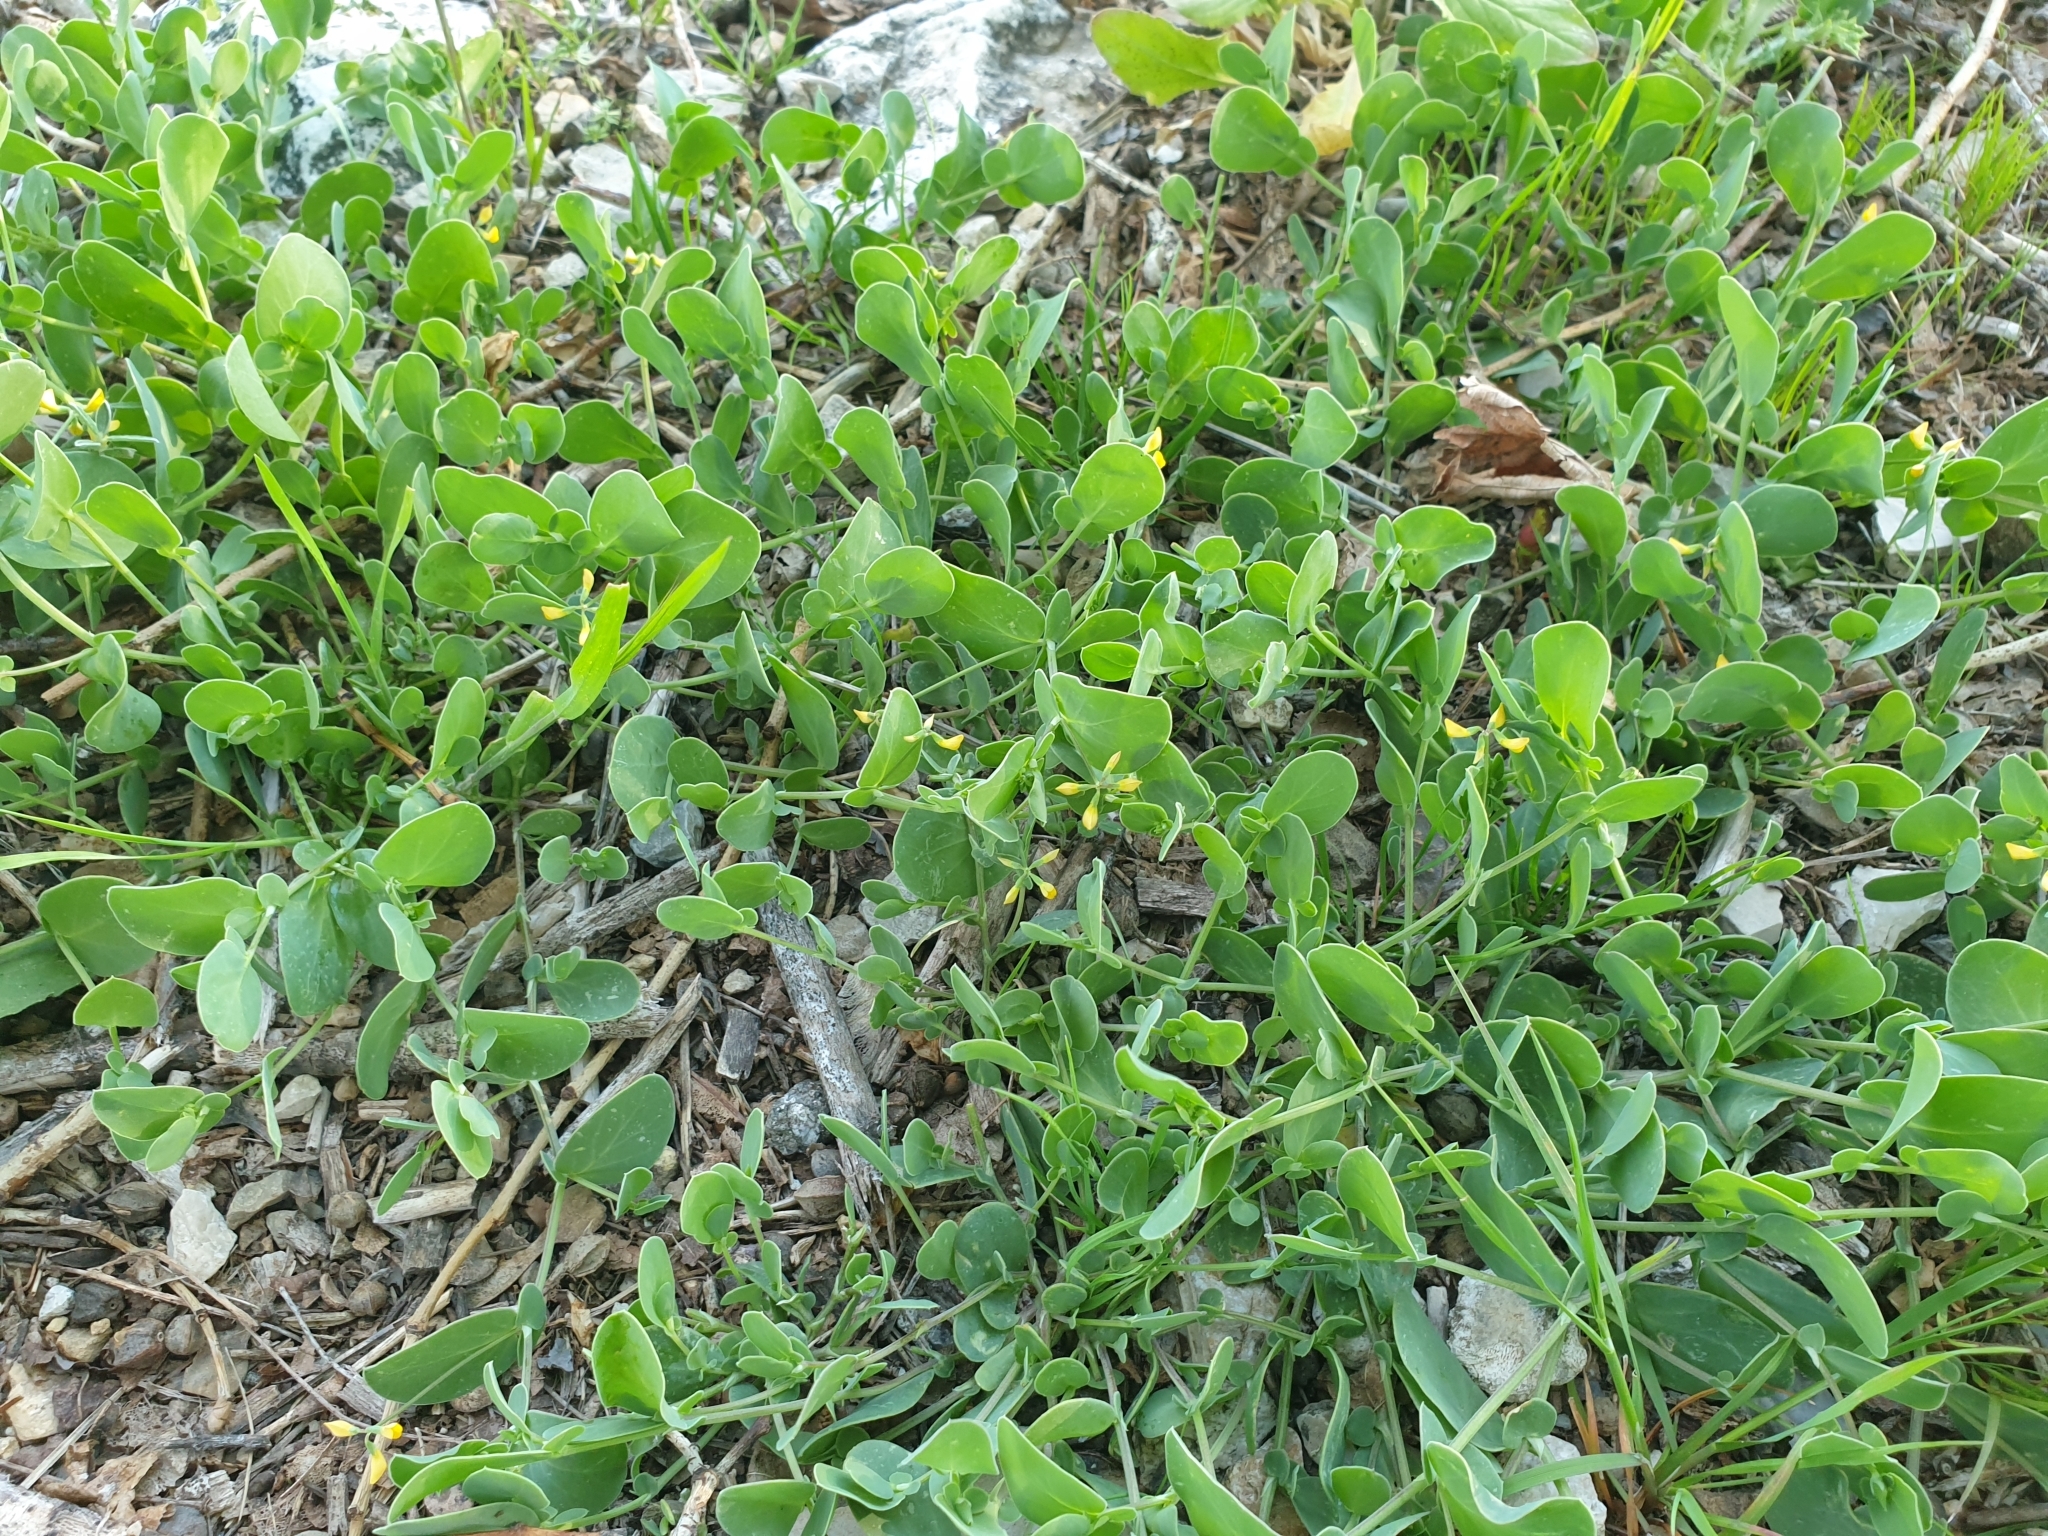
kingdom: Plantae
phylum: Tracheophyta
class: Magnoliopsida
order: Fabales
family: Fabaceae
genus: Coronilla
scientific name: Coronilla scorpioides
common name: Annual scorpion-vetch
